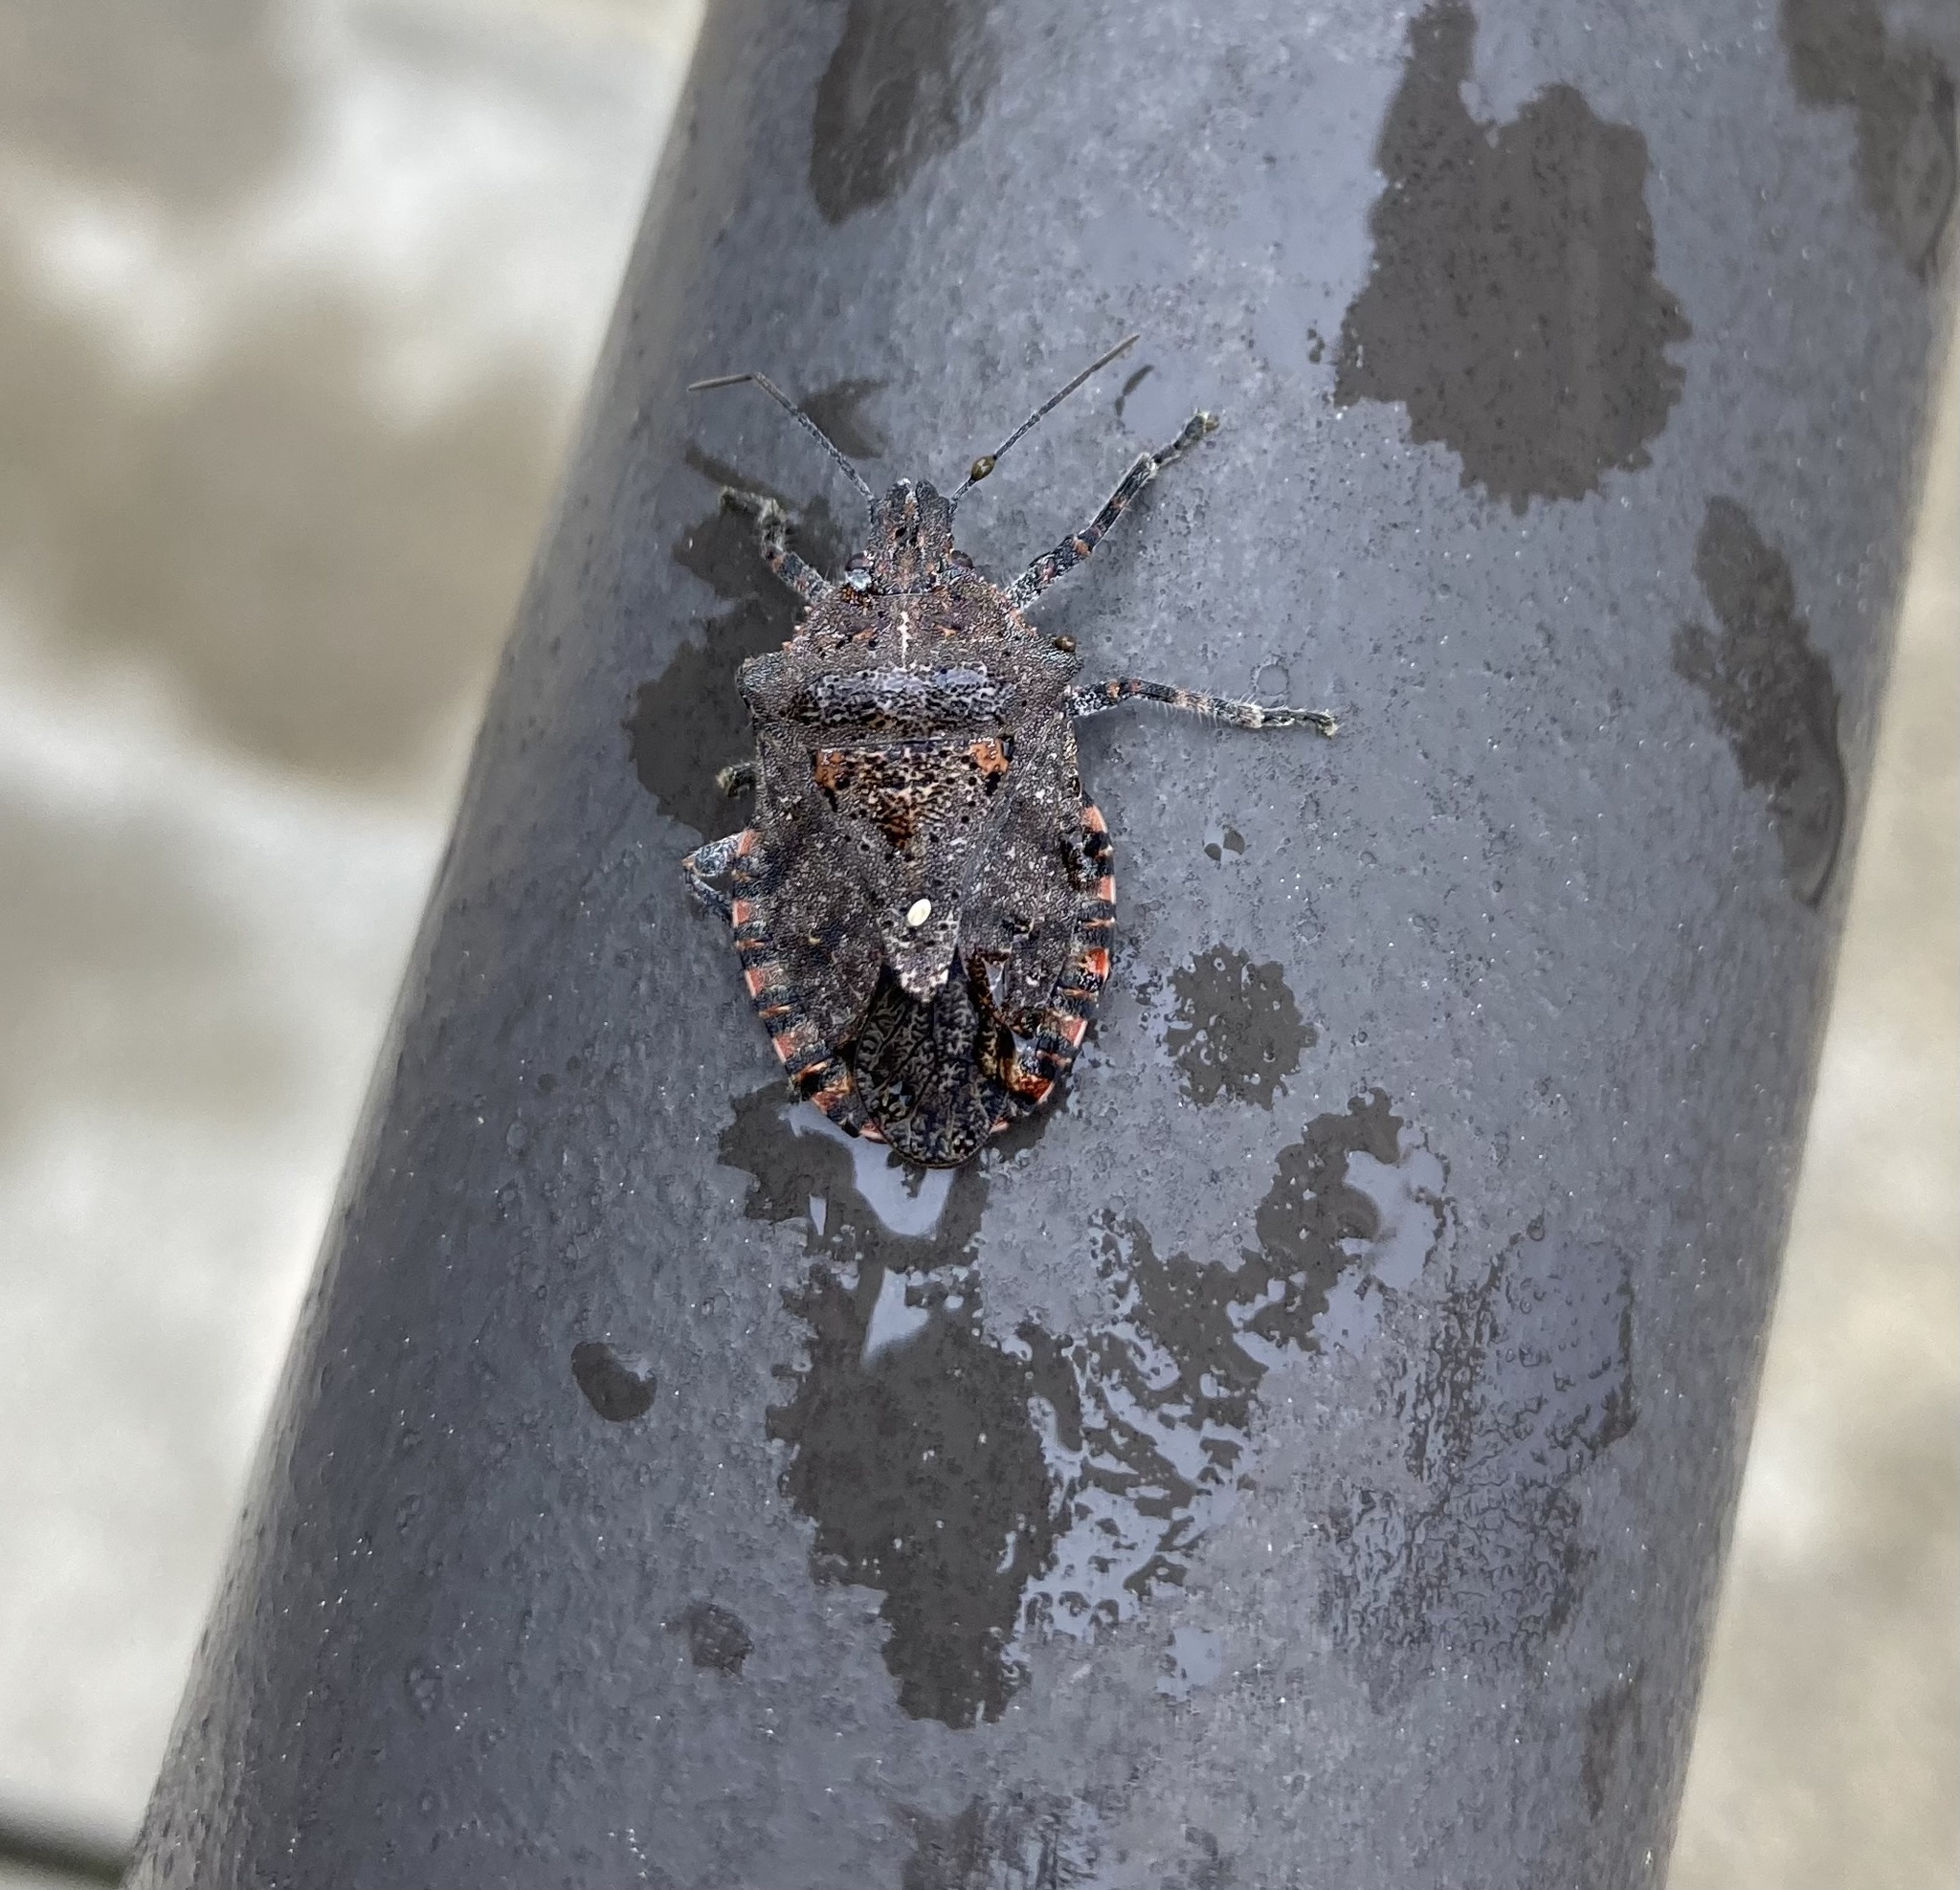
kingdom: Animalia
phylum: Arthropoda
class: Insecta
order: Hemiptera
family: Pentatomidae
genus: Brochymena
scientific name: Brochymena quadripustulata
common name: Four-humped stink bug
